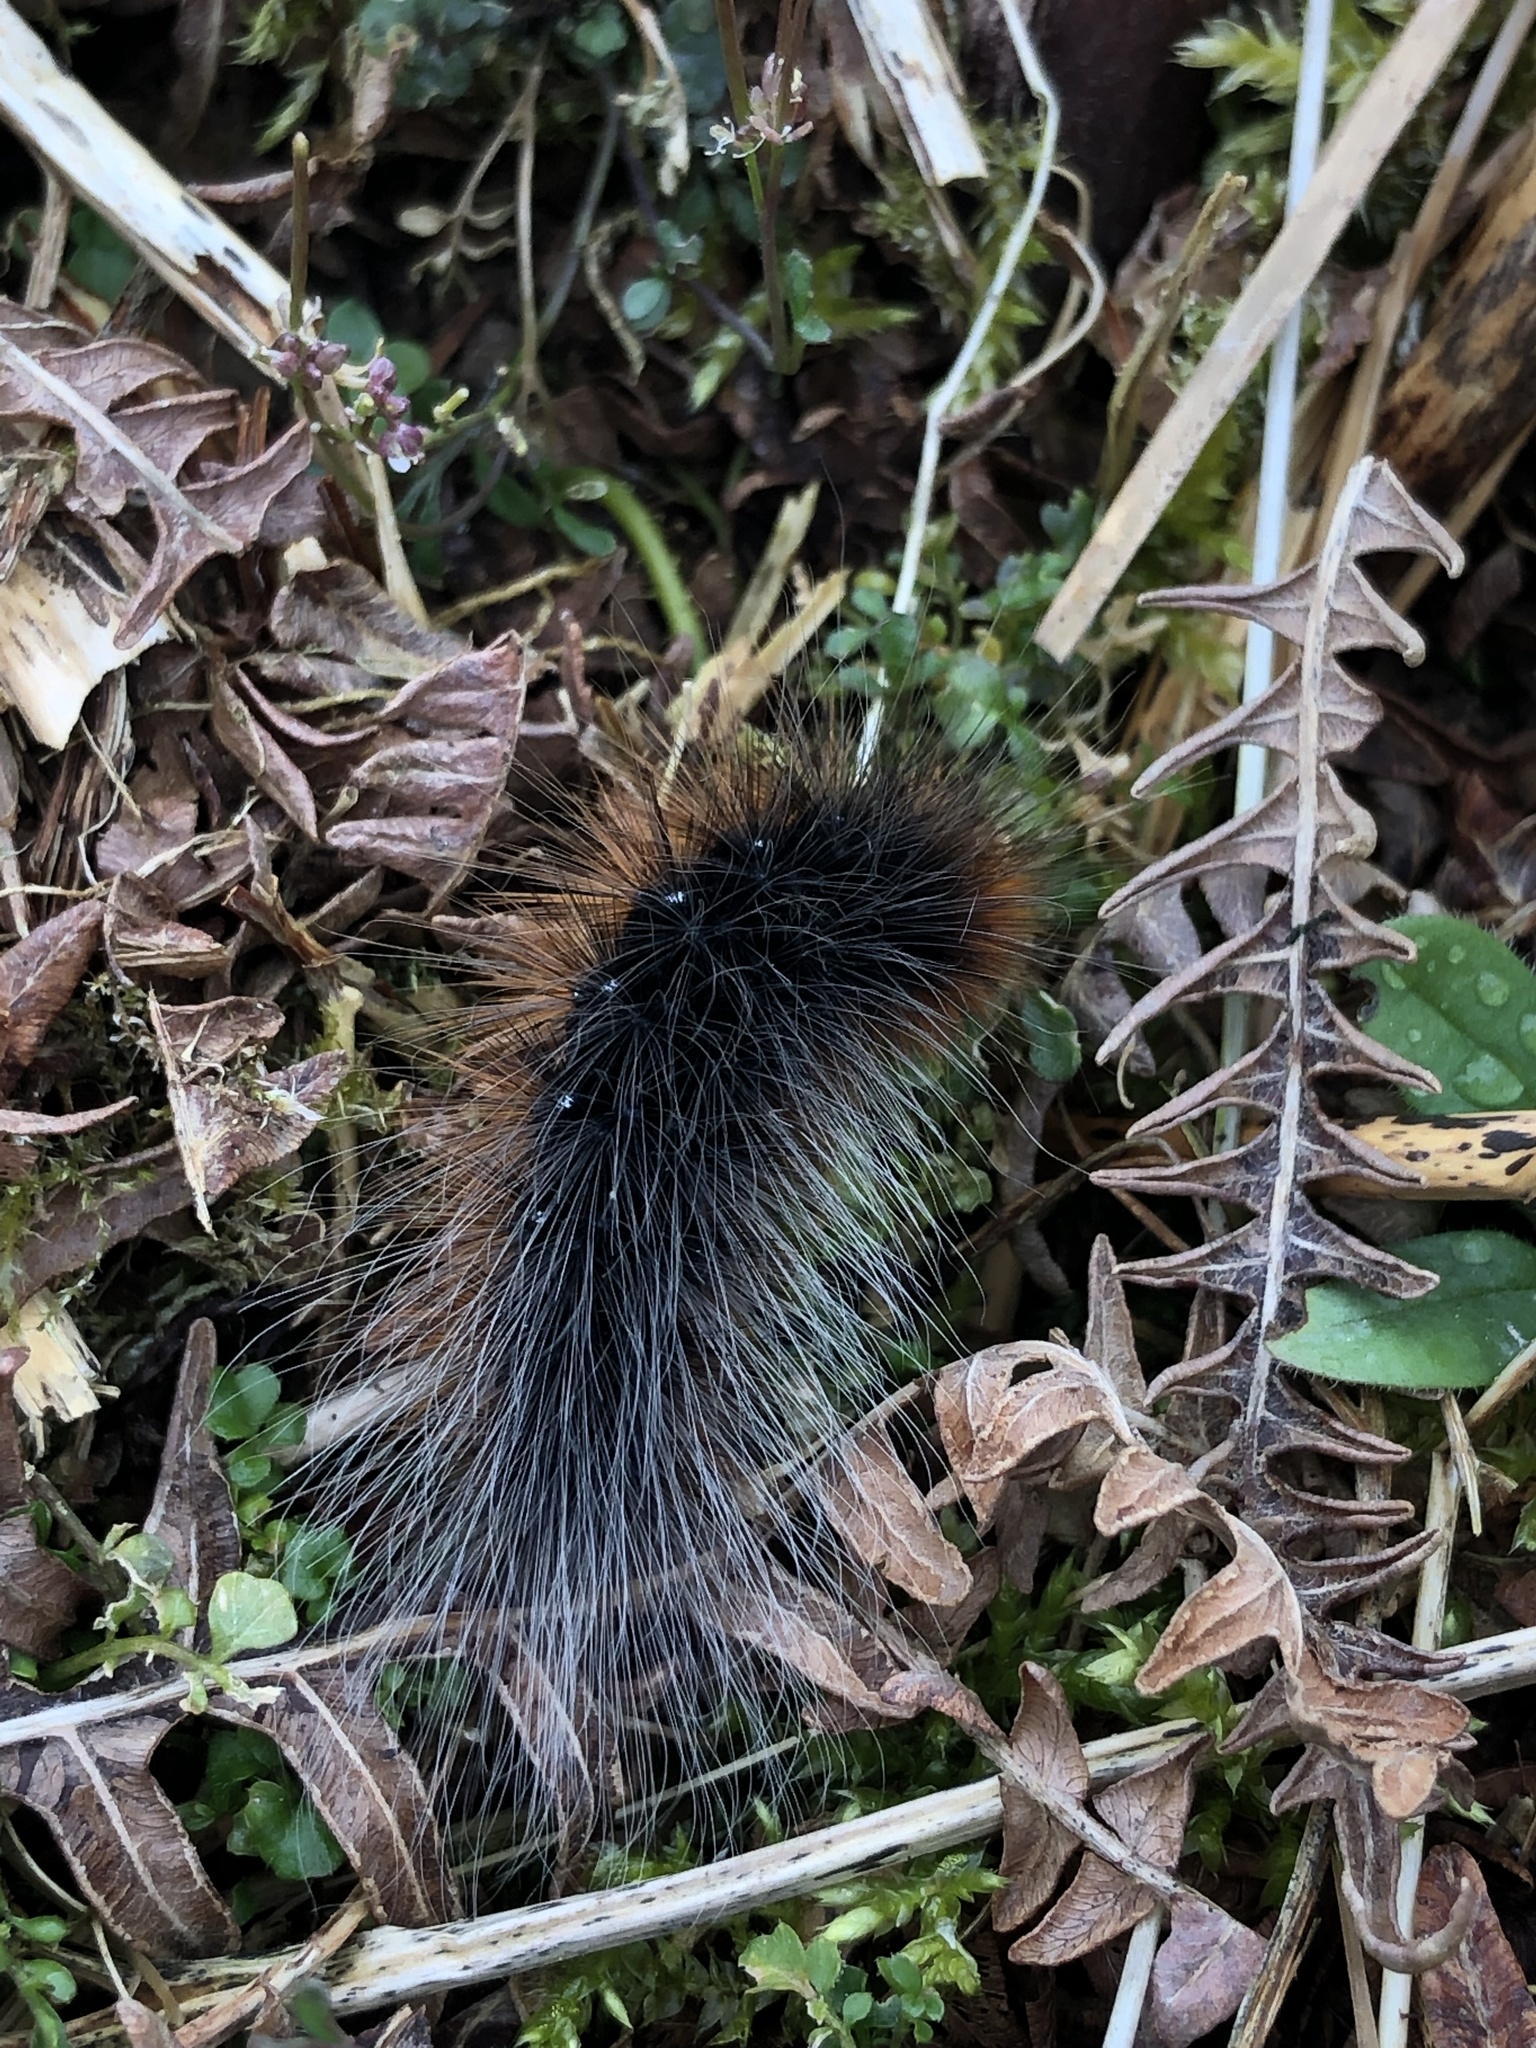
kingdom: Animalia
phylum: Arthropoda
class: Insecta
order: Lepidoptera
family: Erebidae
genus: Arctia
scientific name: Arctia caja
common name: Garden tiger
